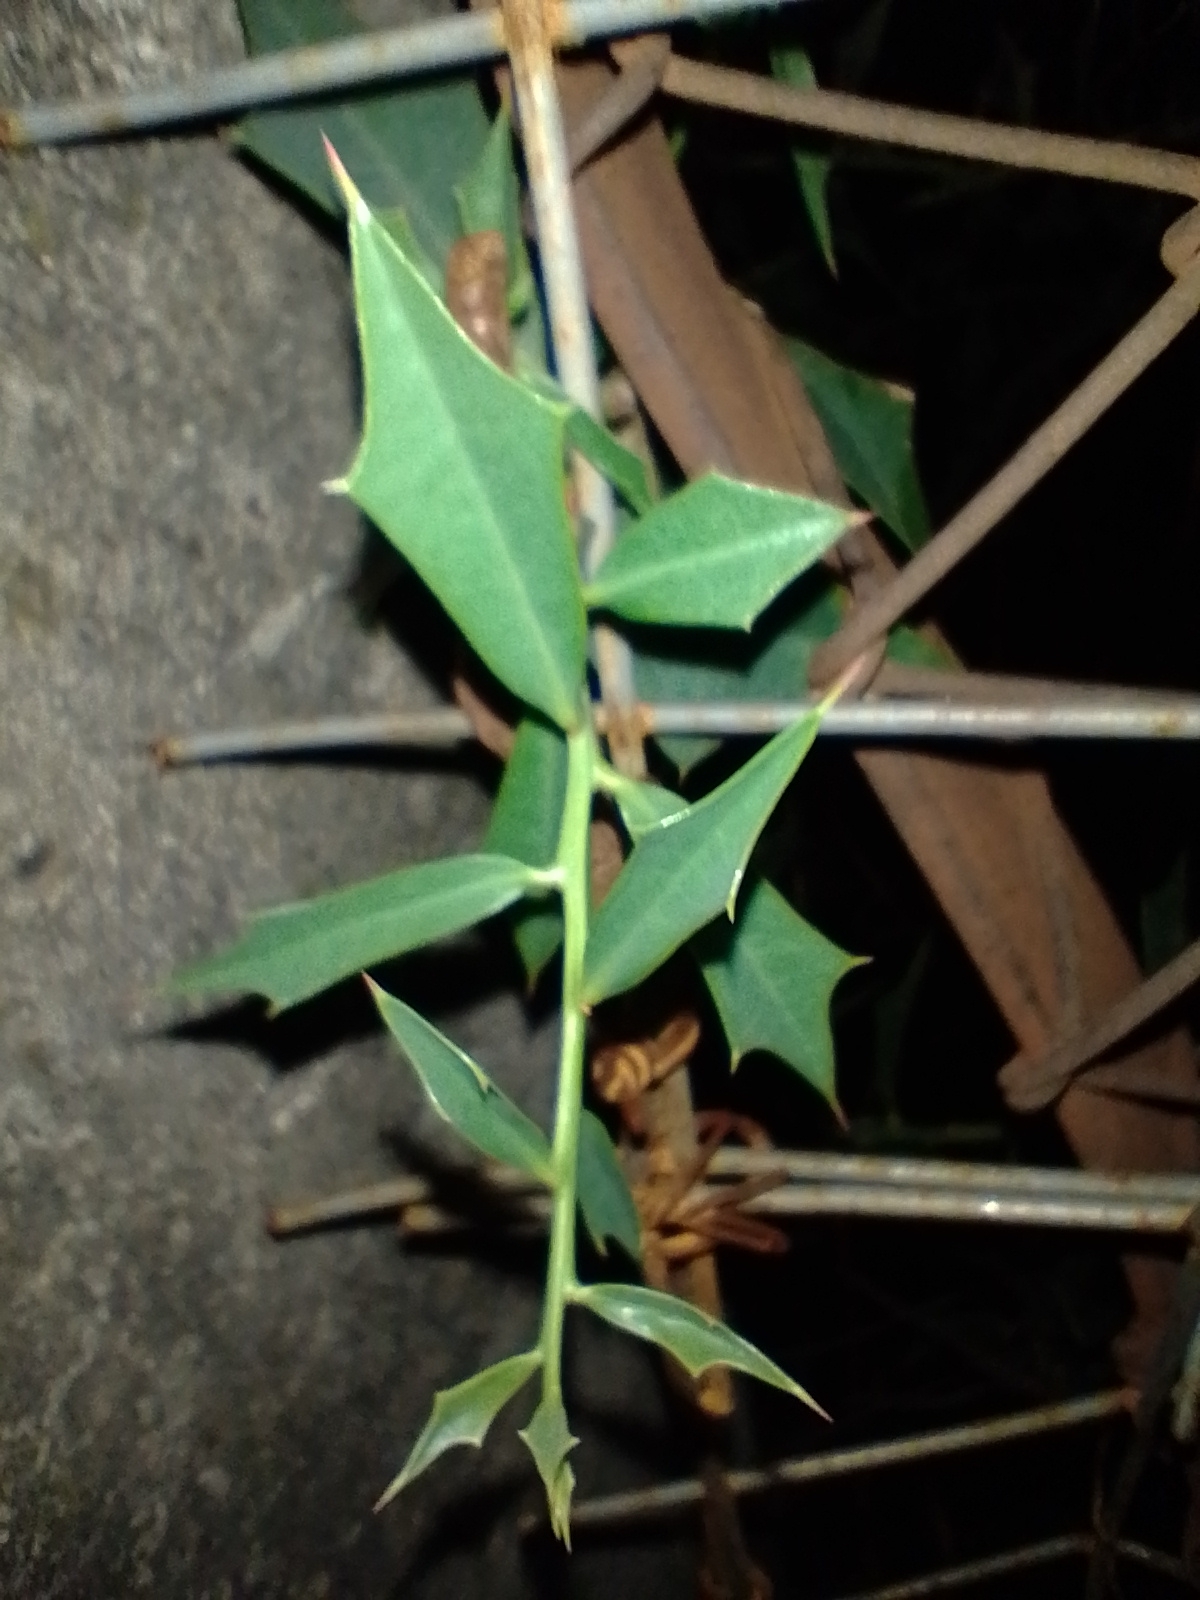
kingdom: Plantae
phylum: Tracheophyta
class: Magnoliopsida
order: Santalales
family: Cervantesiaceae
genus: Jodina
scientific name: Jodina rhombifolia
